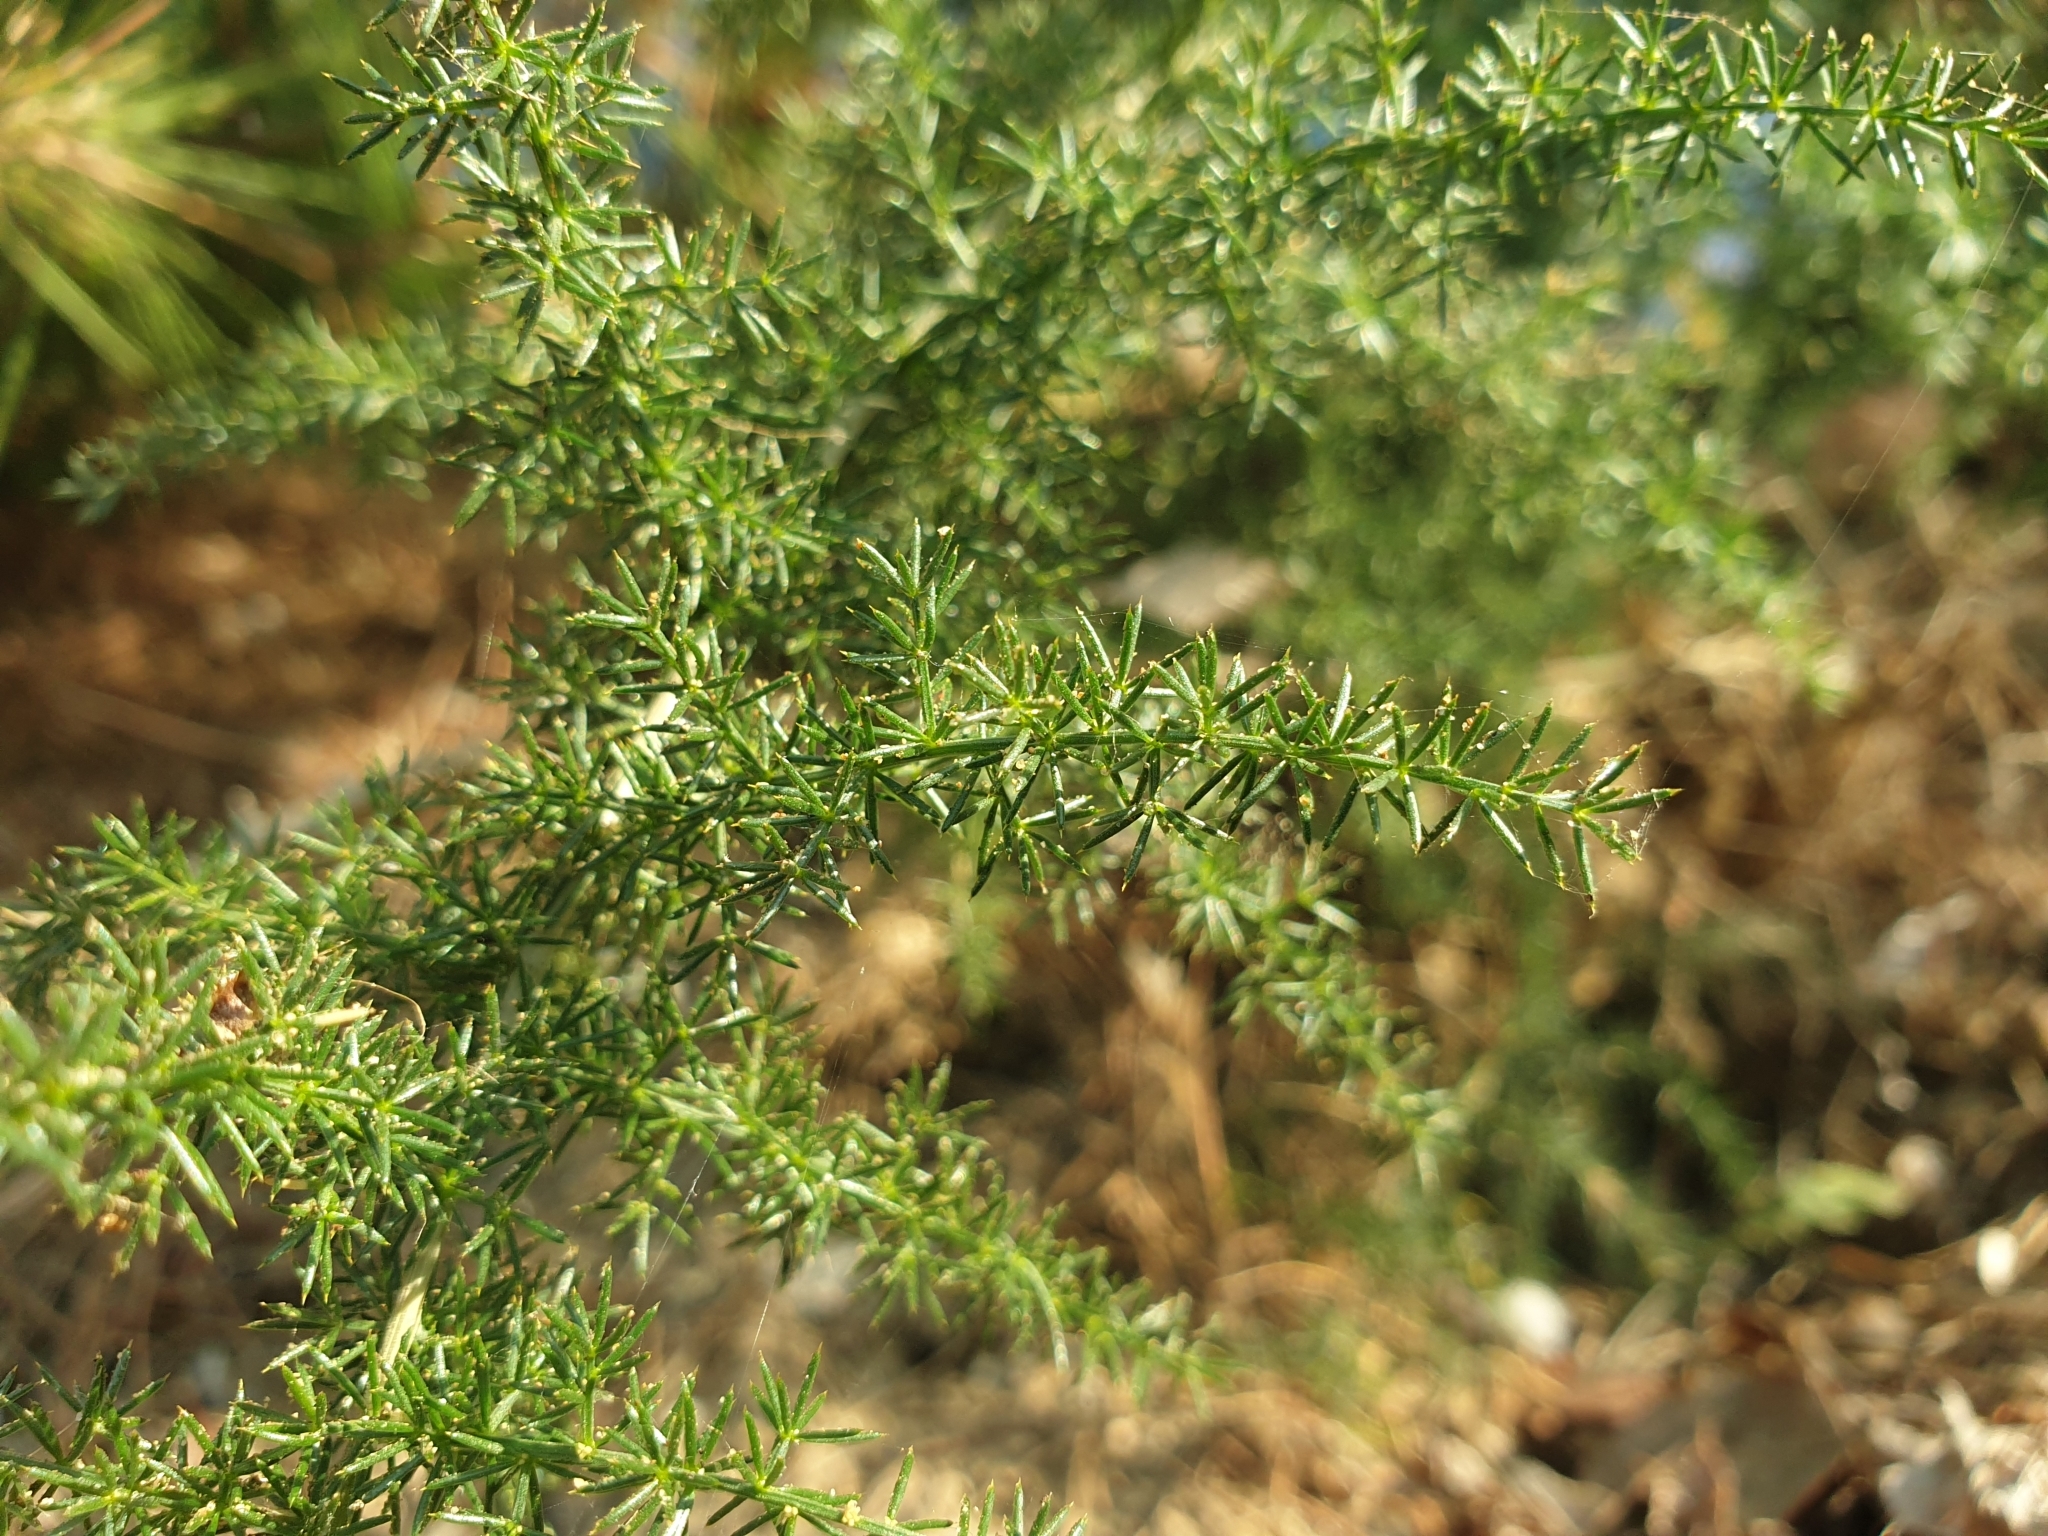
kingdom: Plantae
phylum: Tracheophyta
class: Liliopsida
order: Asparagales
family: Asparagaceae
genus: Asparagus
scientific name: Asparagus acutifolius
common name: Wild asparagus
